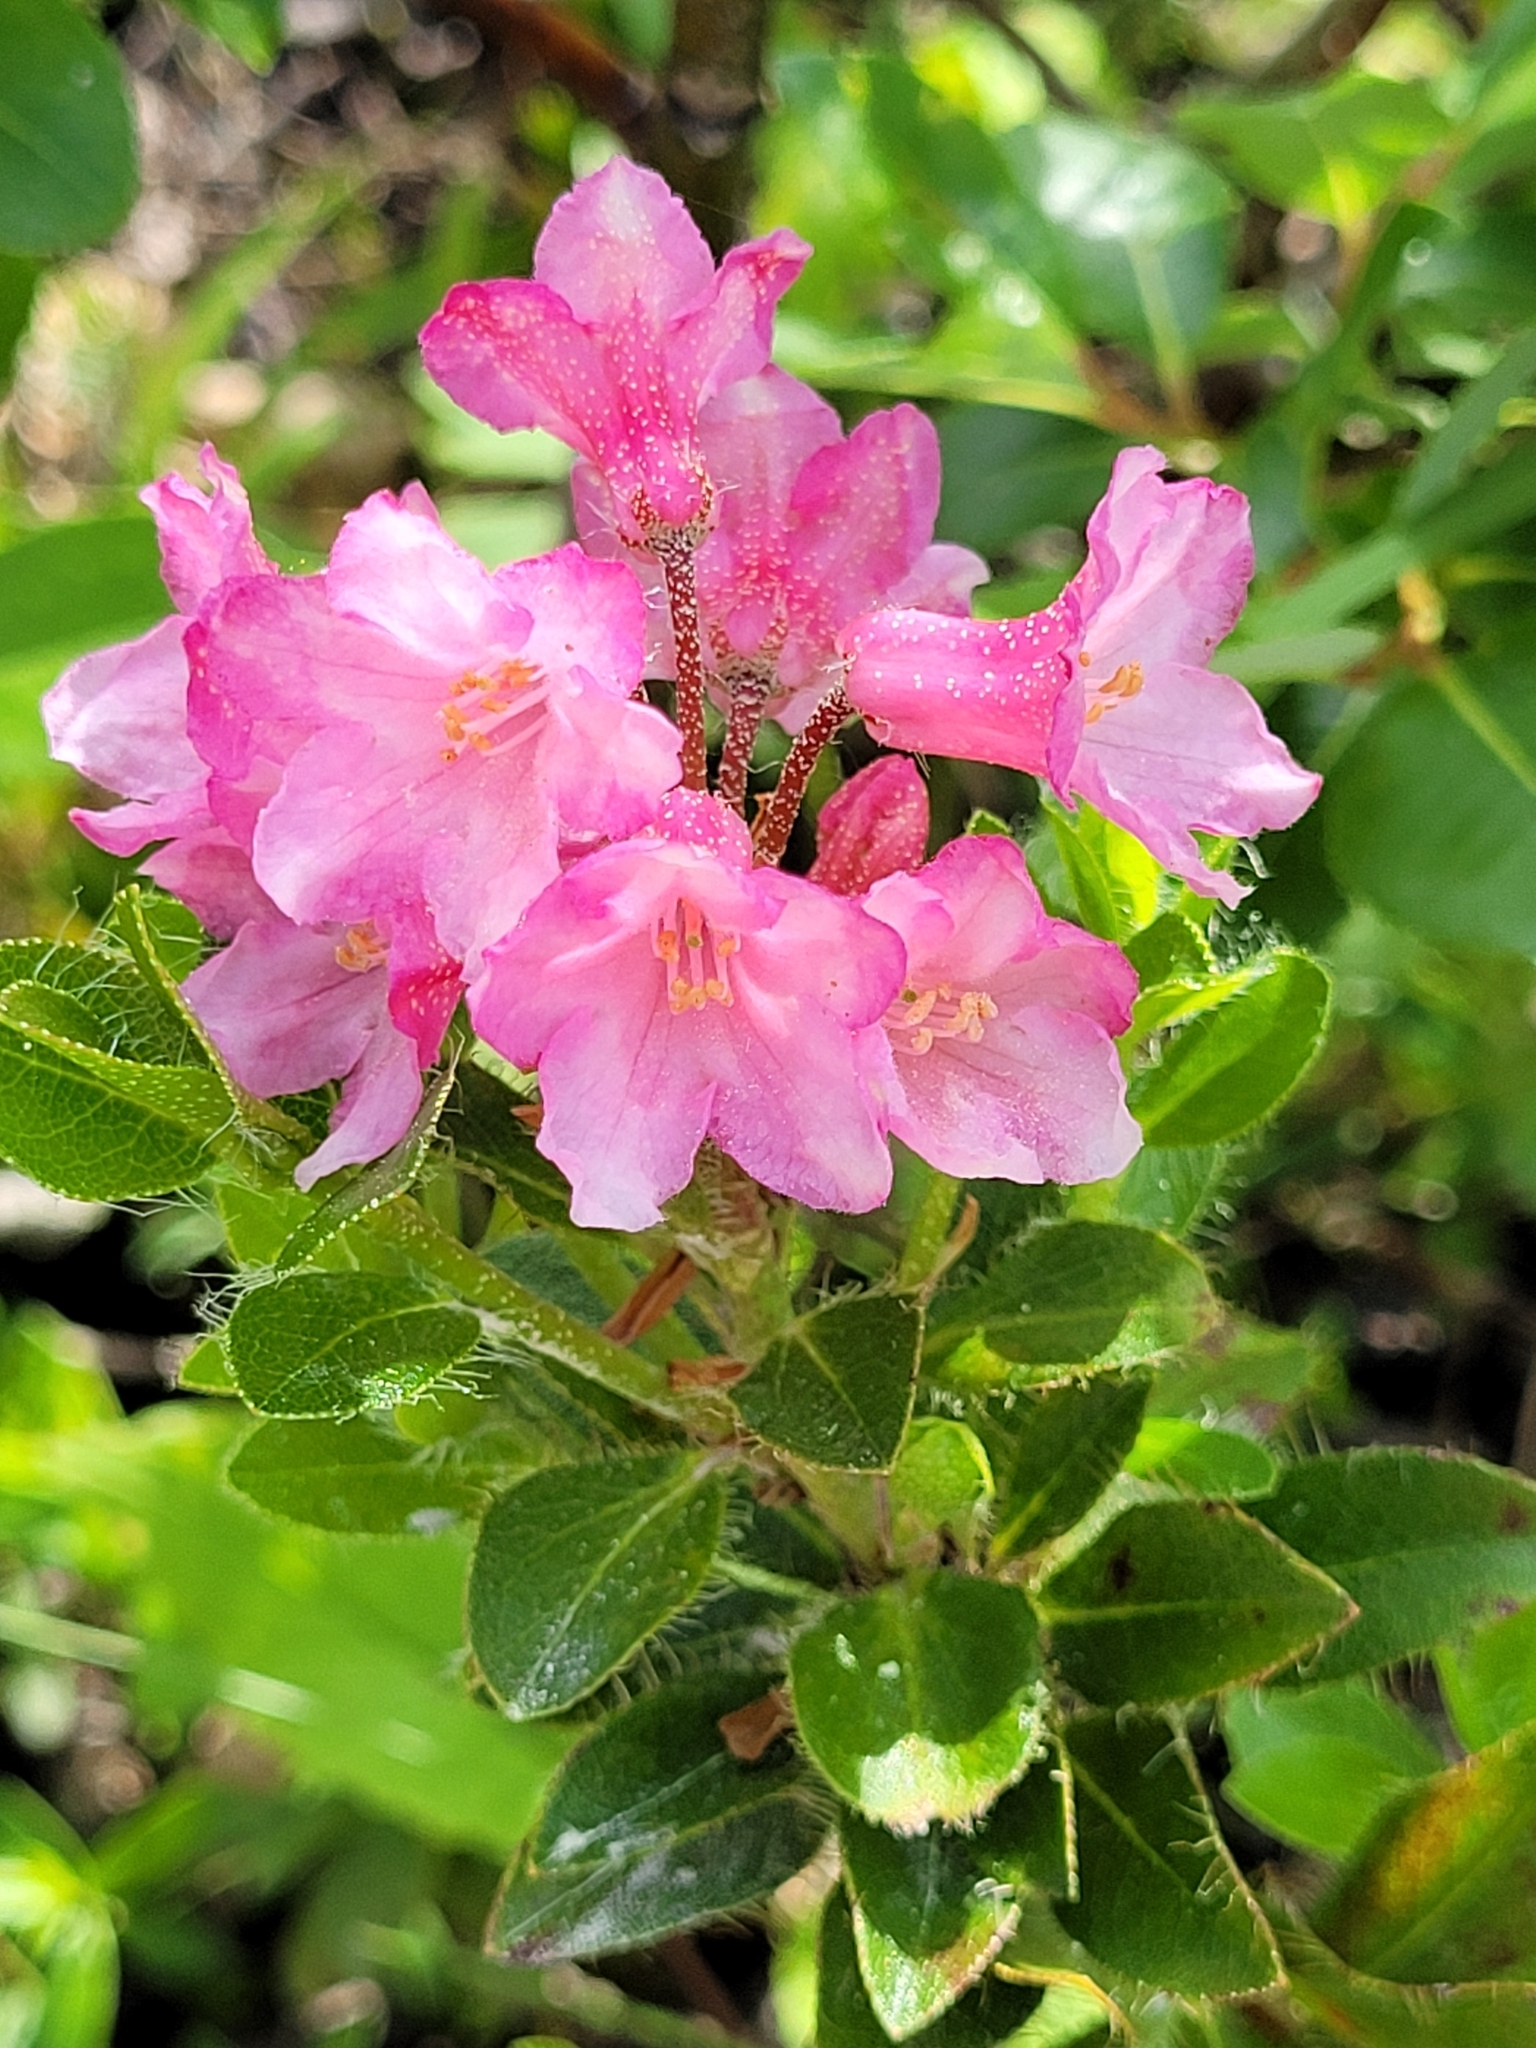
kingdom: Plantae
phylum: Tracheophyta
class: Magnoliopsida
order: Ericales
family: Ericaceae
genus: Rhododendron
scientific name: Rhododendron hirsutum
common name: Hairy alpenrose
